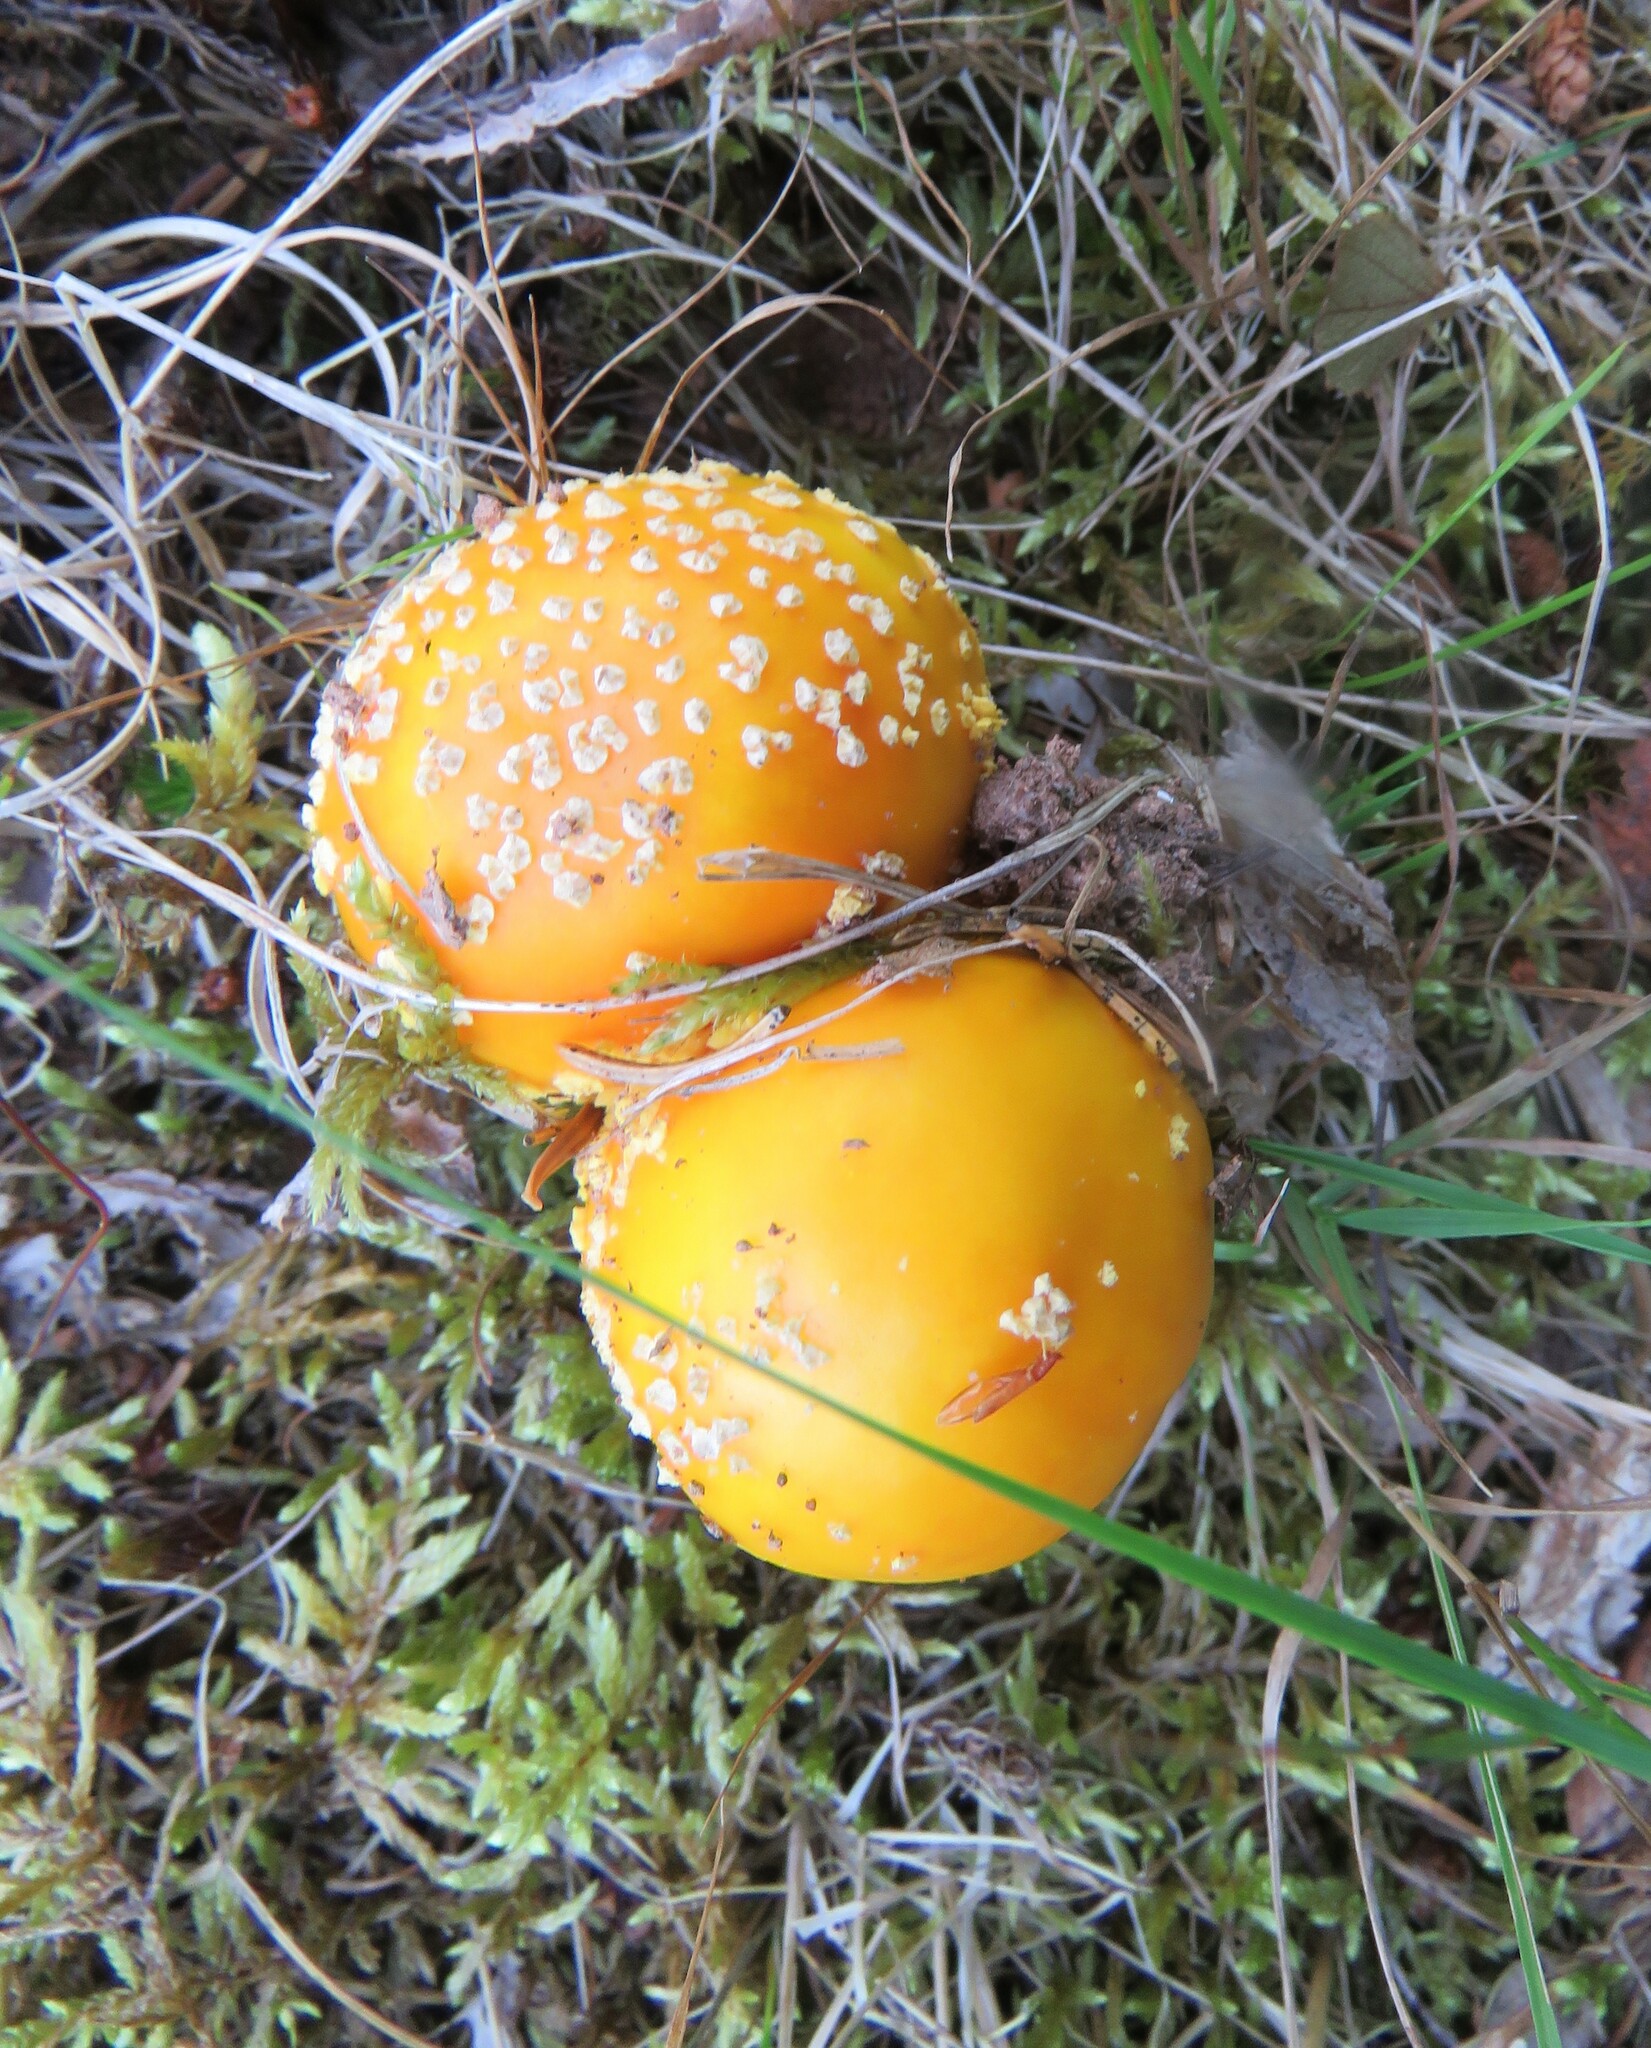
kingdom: Fungi
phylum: Basidiomycota
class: Agaricomycetes
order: Agaricales
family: Amanitaceae
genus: Amanita
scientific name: Amanita muscaria
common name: Fly agaric
